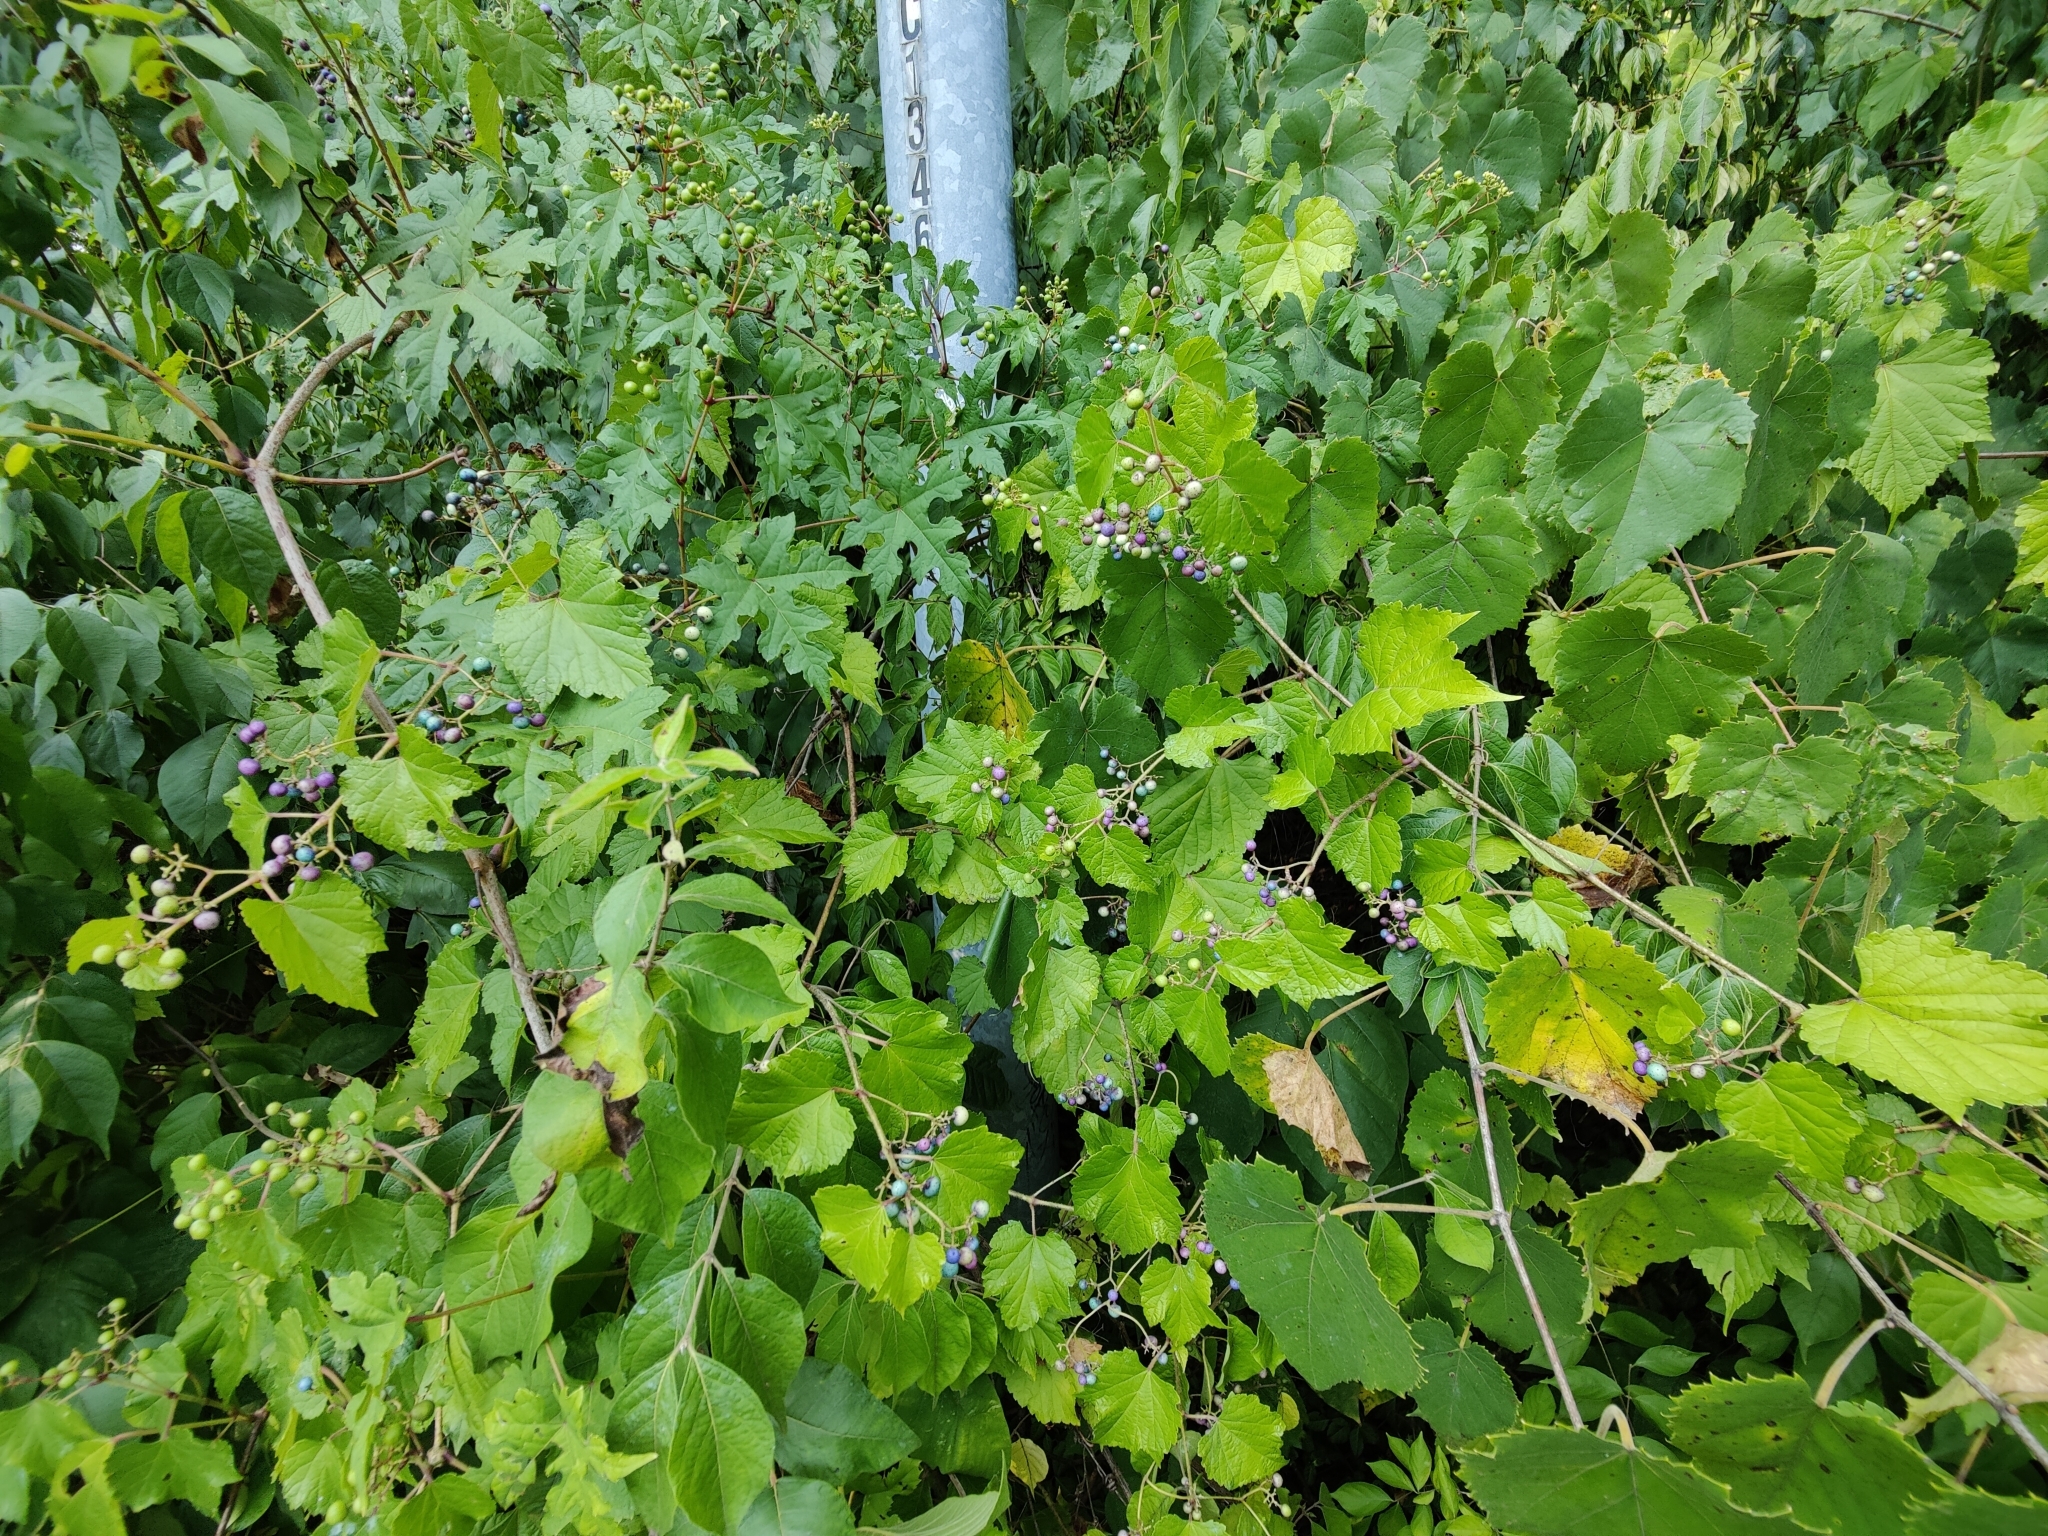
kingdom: Plantae
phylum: Tracheophyta
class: Magnoliopsida
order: Vitales
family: Vitaceae
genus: Ampelopsis
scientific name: Ampelopsis glandulosa
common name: Amur peppervine
